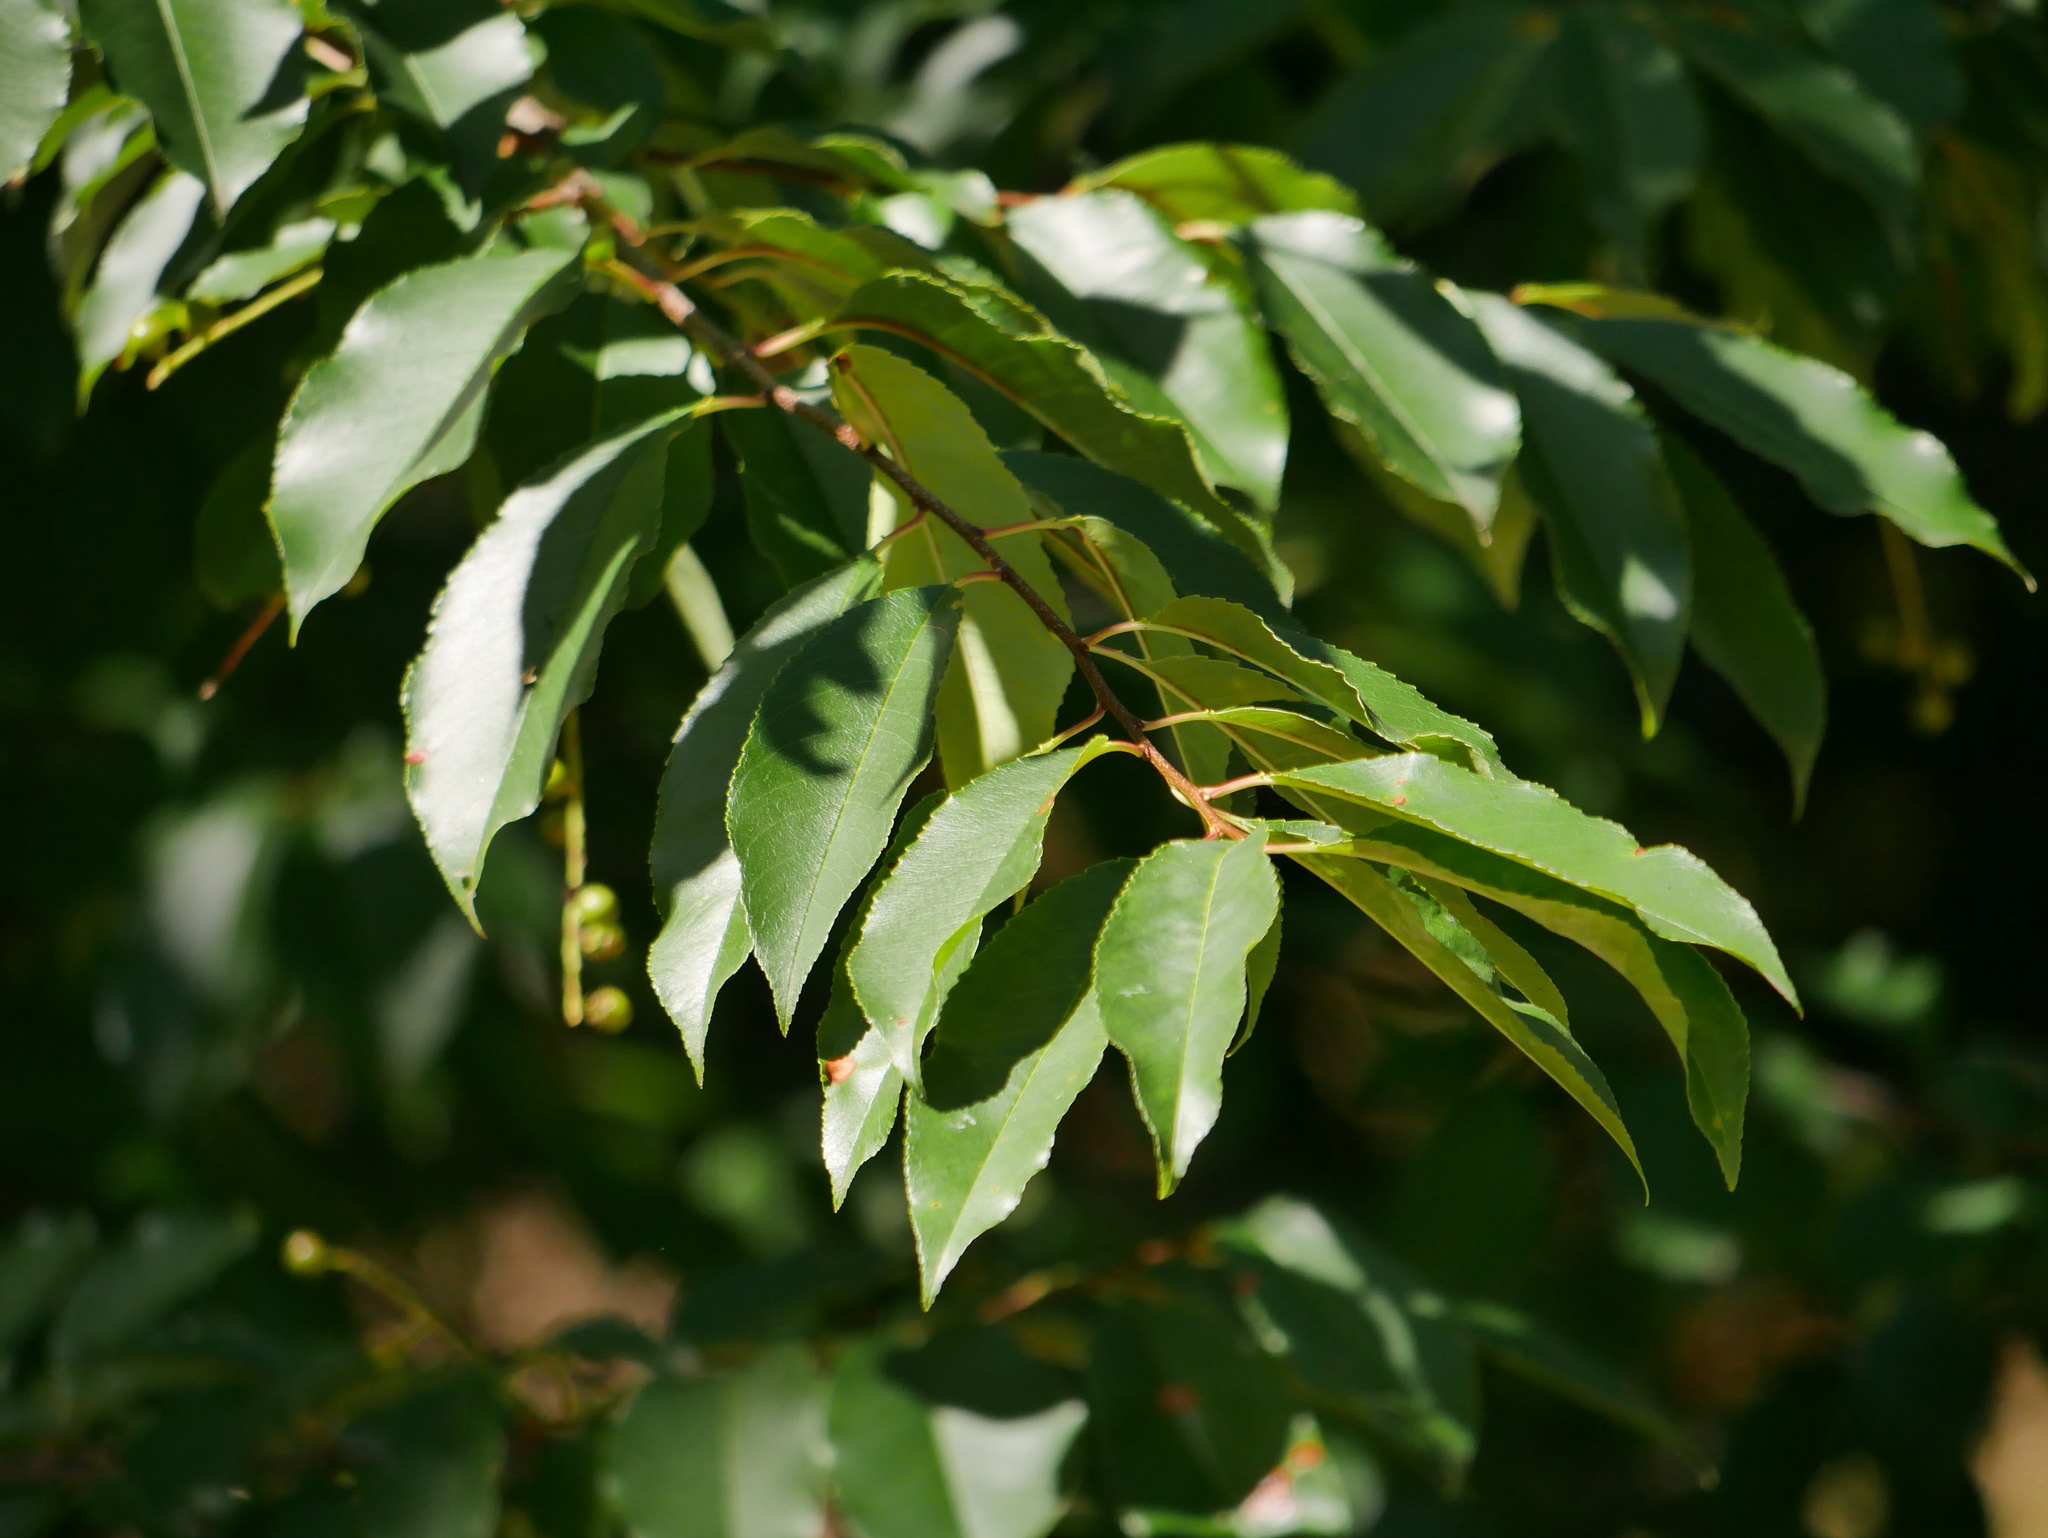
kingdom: Plantae
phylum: Tracheophyta
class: Magnoliopsida
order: Rosales
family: Rosaceae
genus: Prunus
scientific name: Prunus serotina
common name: Black cherry
